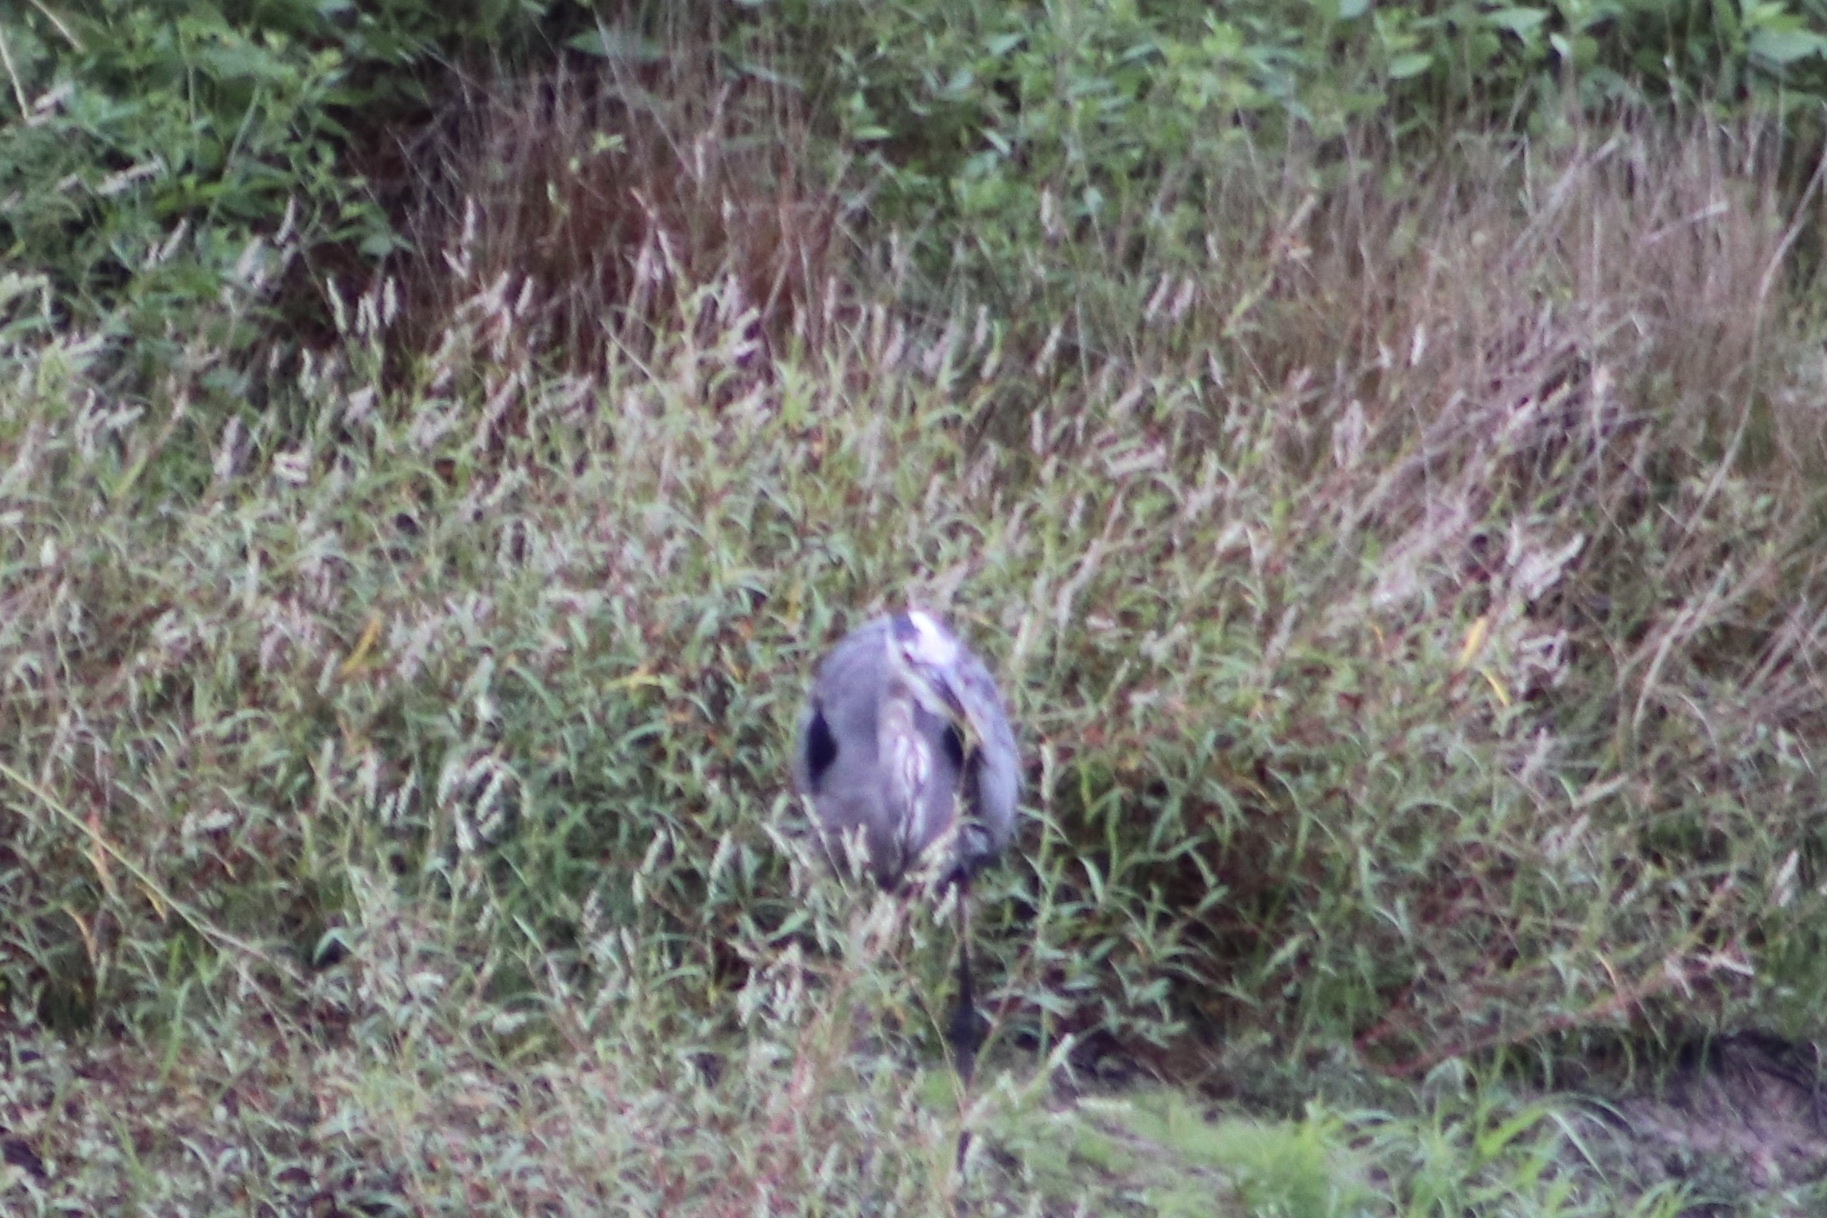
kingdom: Animalia
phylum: Chordata
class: Aves
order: Pelecaniformes
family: Ardeidae
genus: Ardea
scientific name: Ardea herodias
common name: Great blue heron
